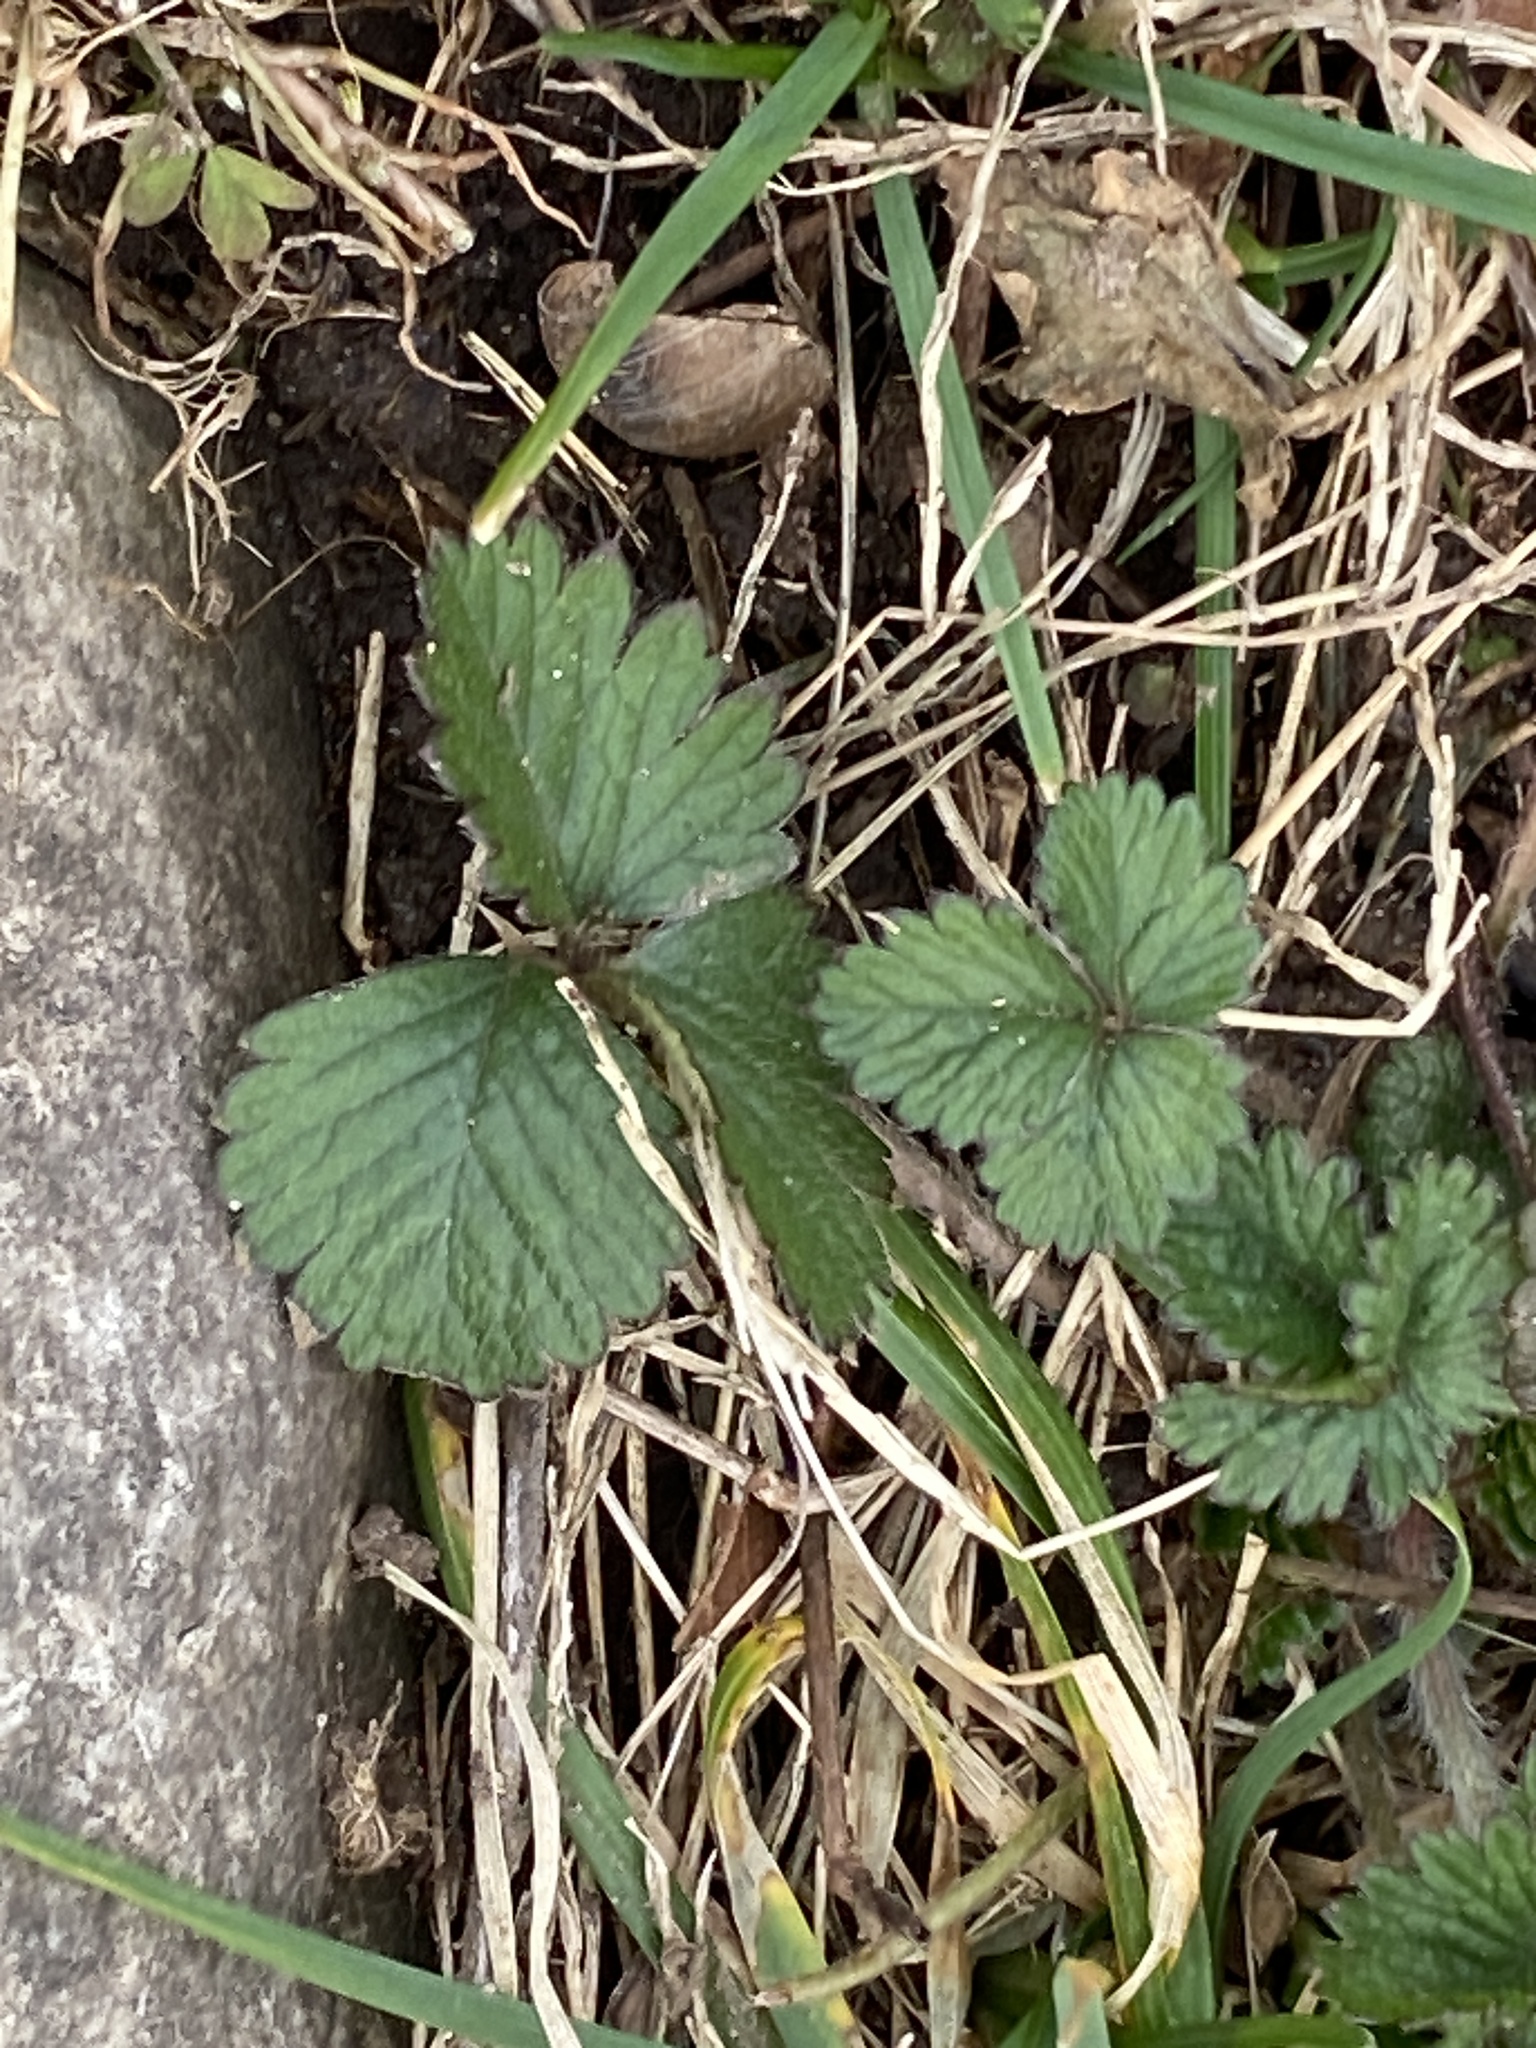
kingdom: Plantae
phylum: Tracheophyta
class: Magnoliopsida
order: Rosales
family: Rosaceae
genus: Potentilla
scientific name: Potentilla indica
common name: Yellow-flowered strawberry
